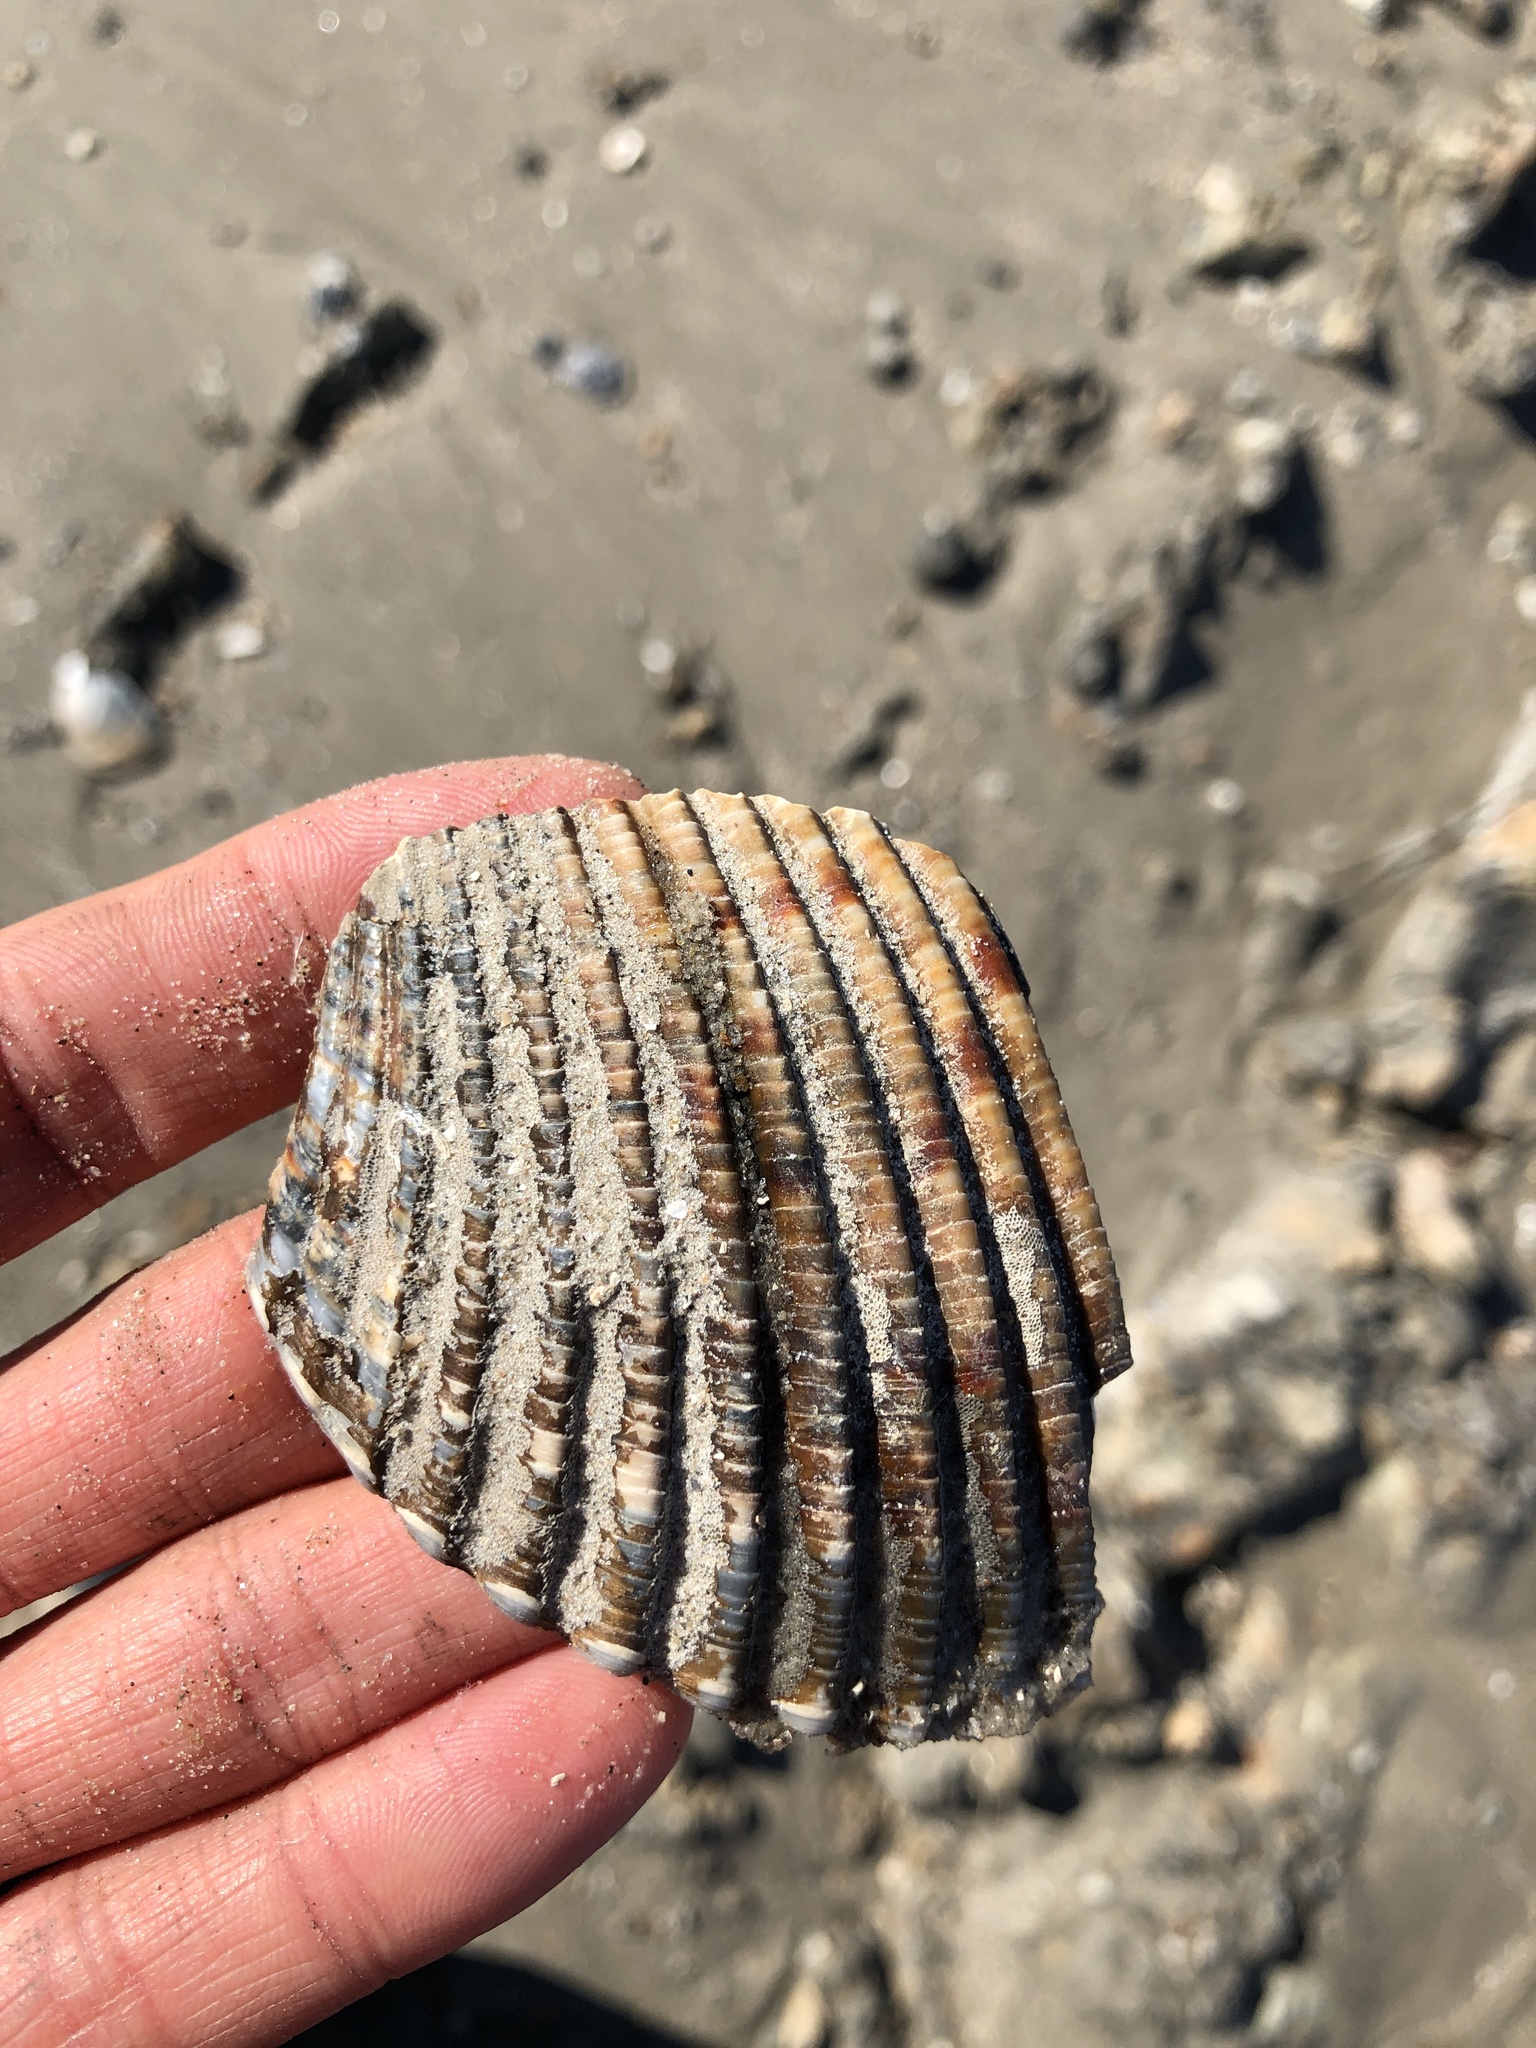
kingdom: Animalia
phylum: Mollusca
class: Bivalvia
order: Cardiida
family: Cardiidae
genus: Dinocardium
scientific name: Dinocardium robustum
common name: Atlantic giant cockle
